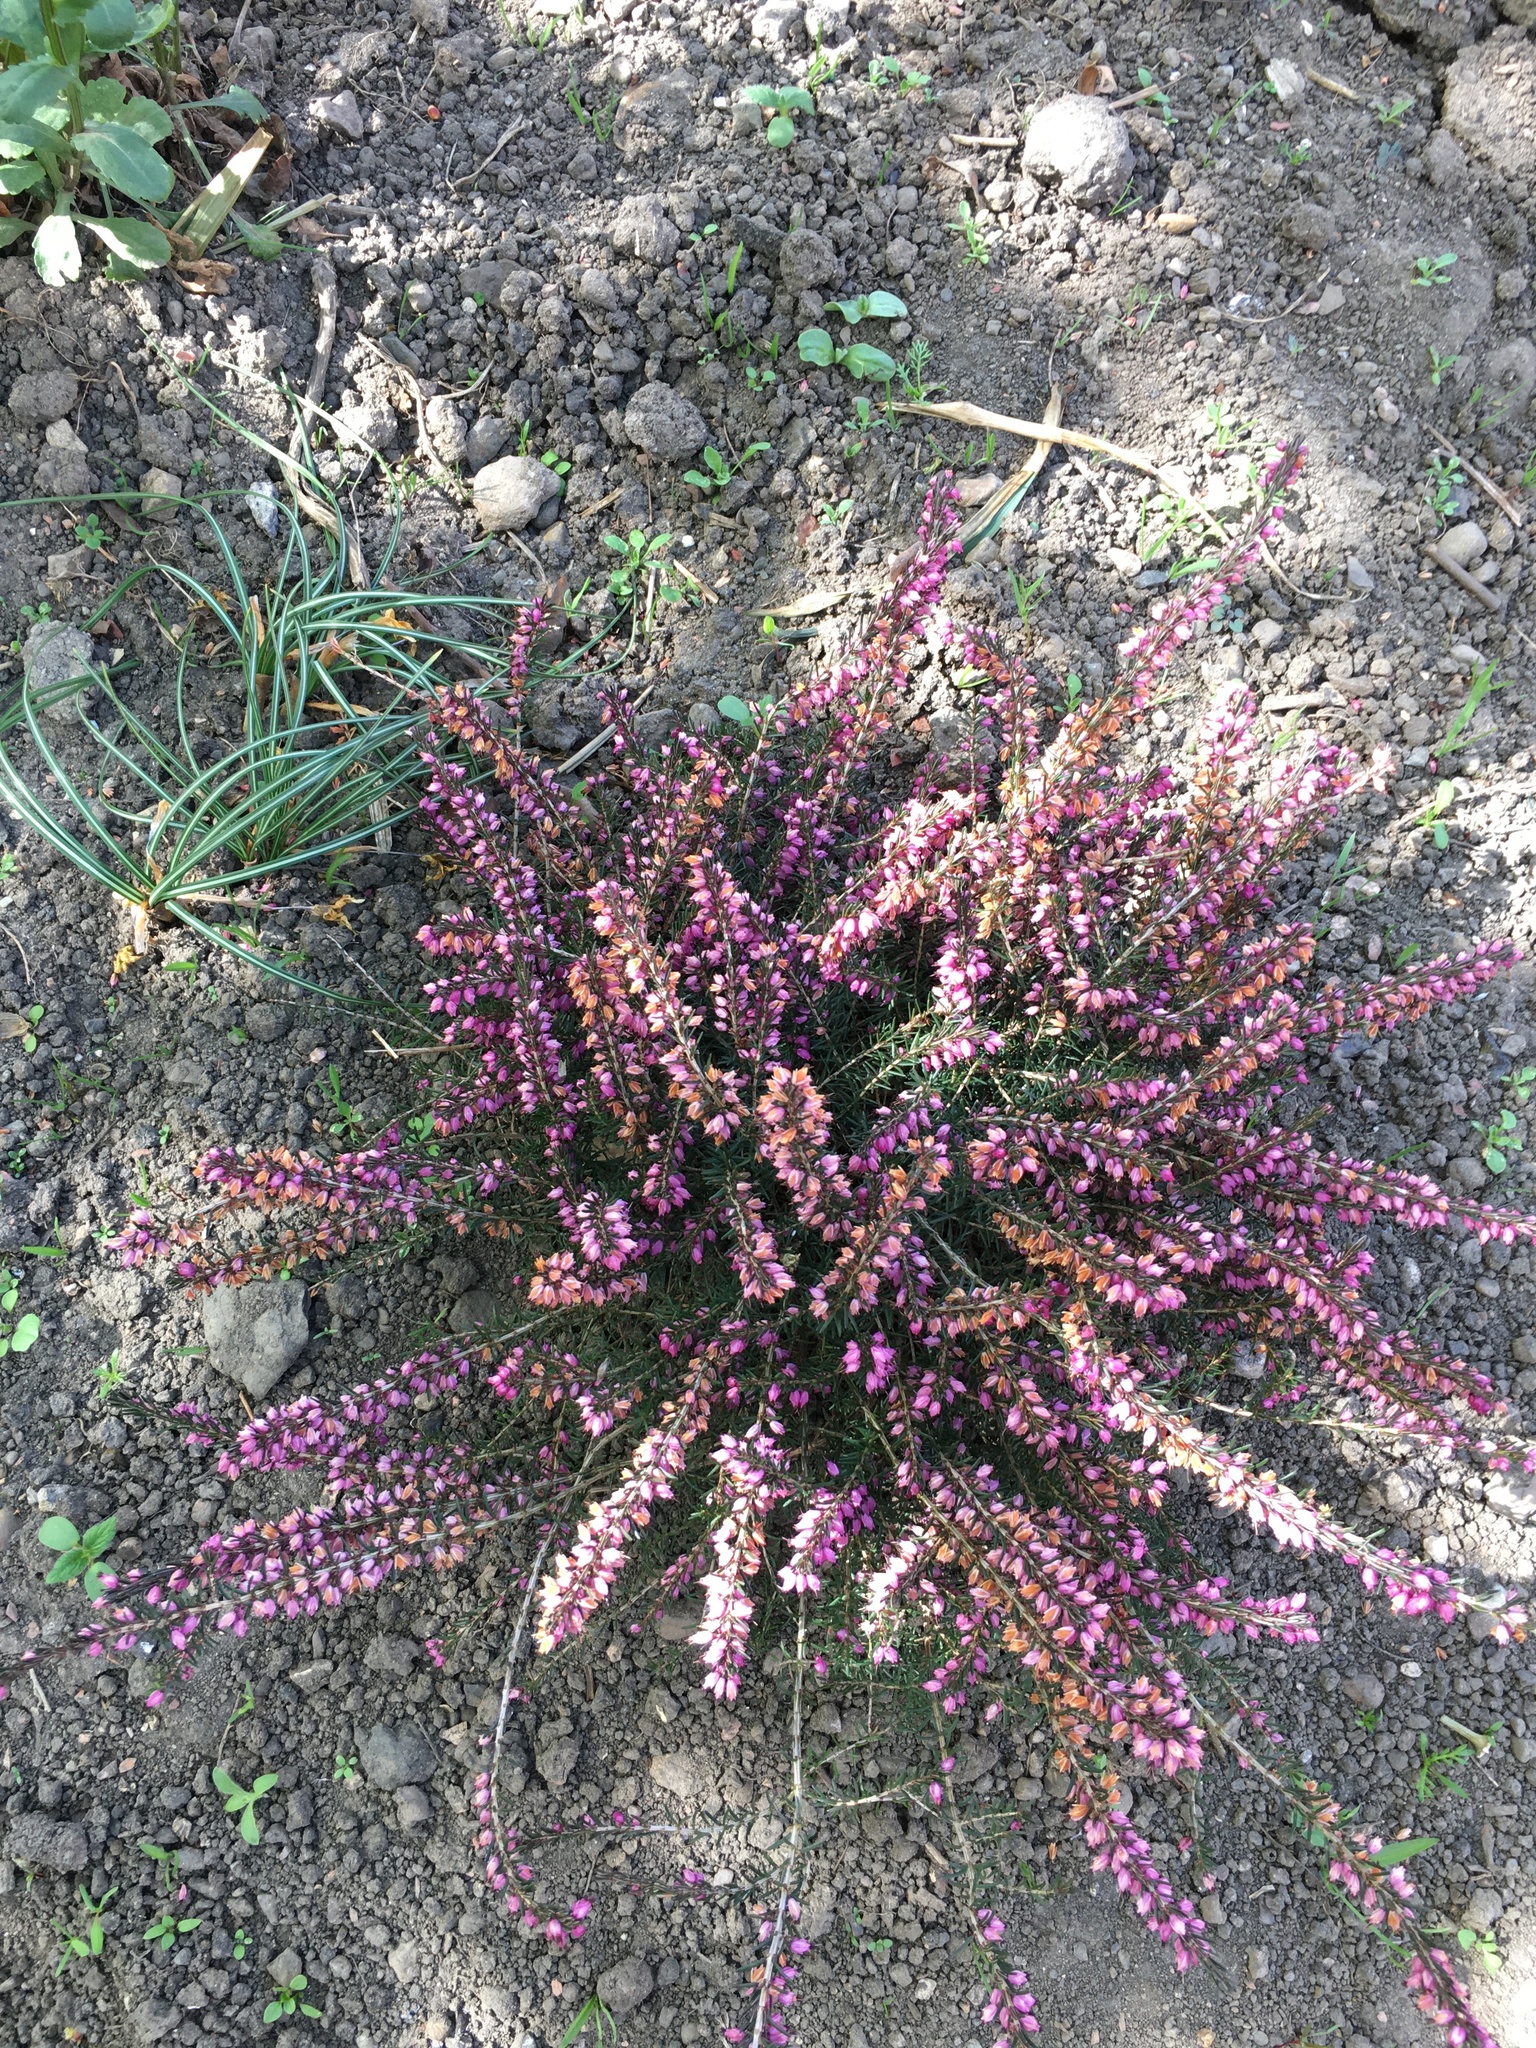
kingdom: Plantae
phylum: Tracheophyta
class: Magnoliopsida
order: Ericales
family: Ericaceae
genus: Erica
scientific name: Erica carnea
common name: Winter heath
